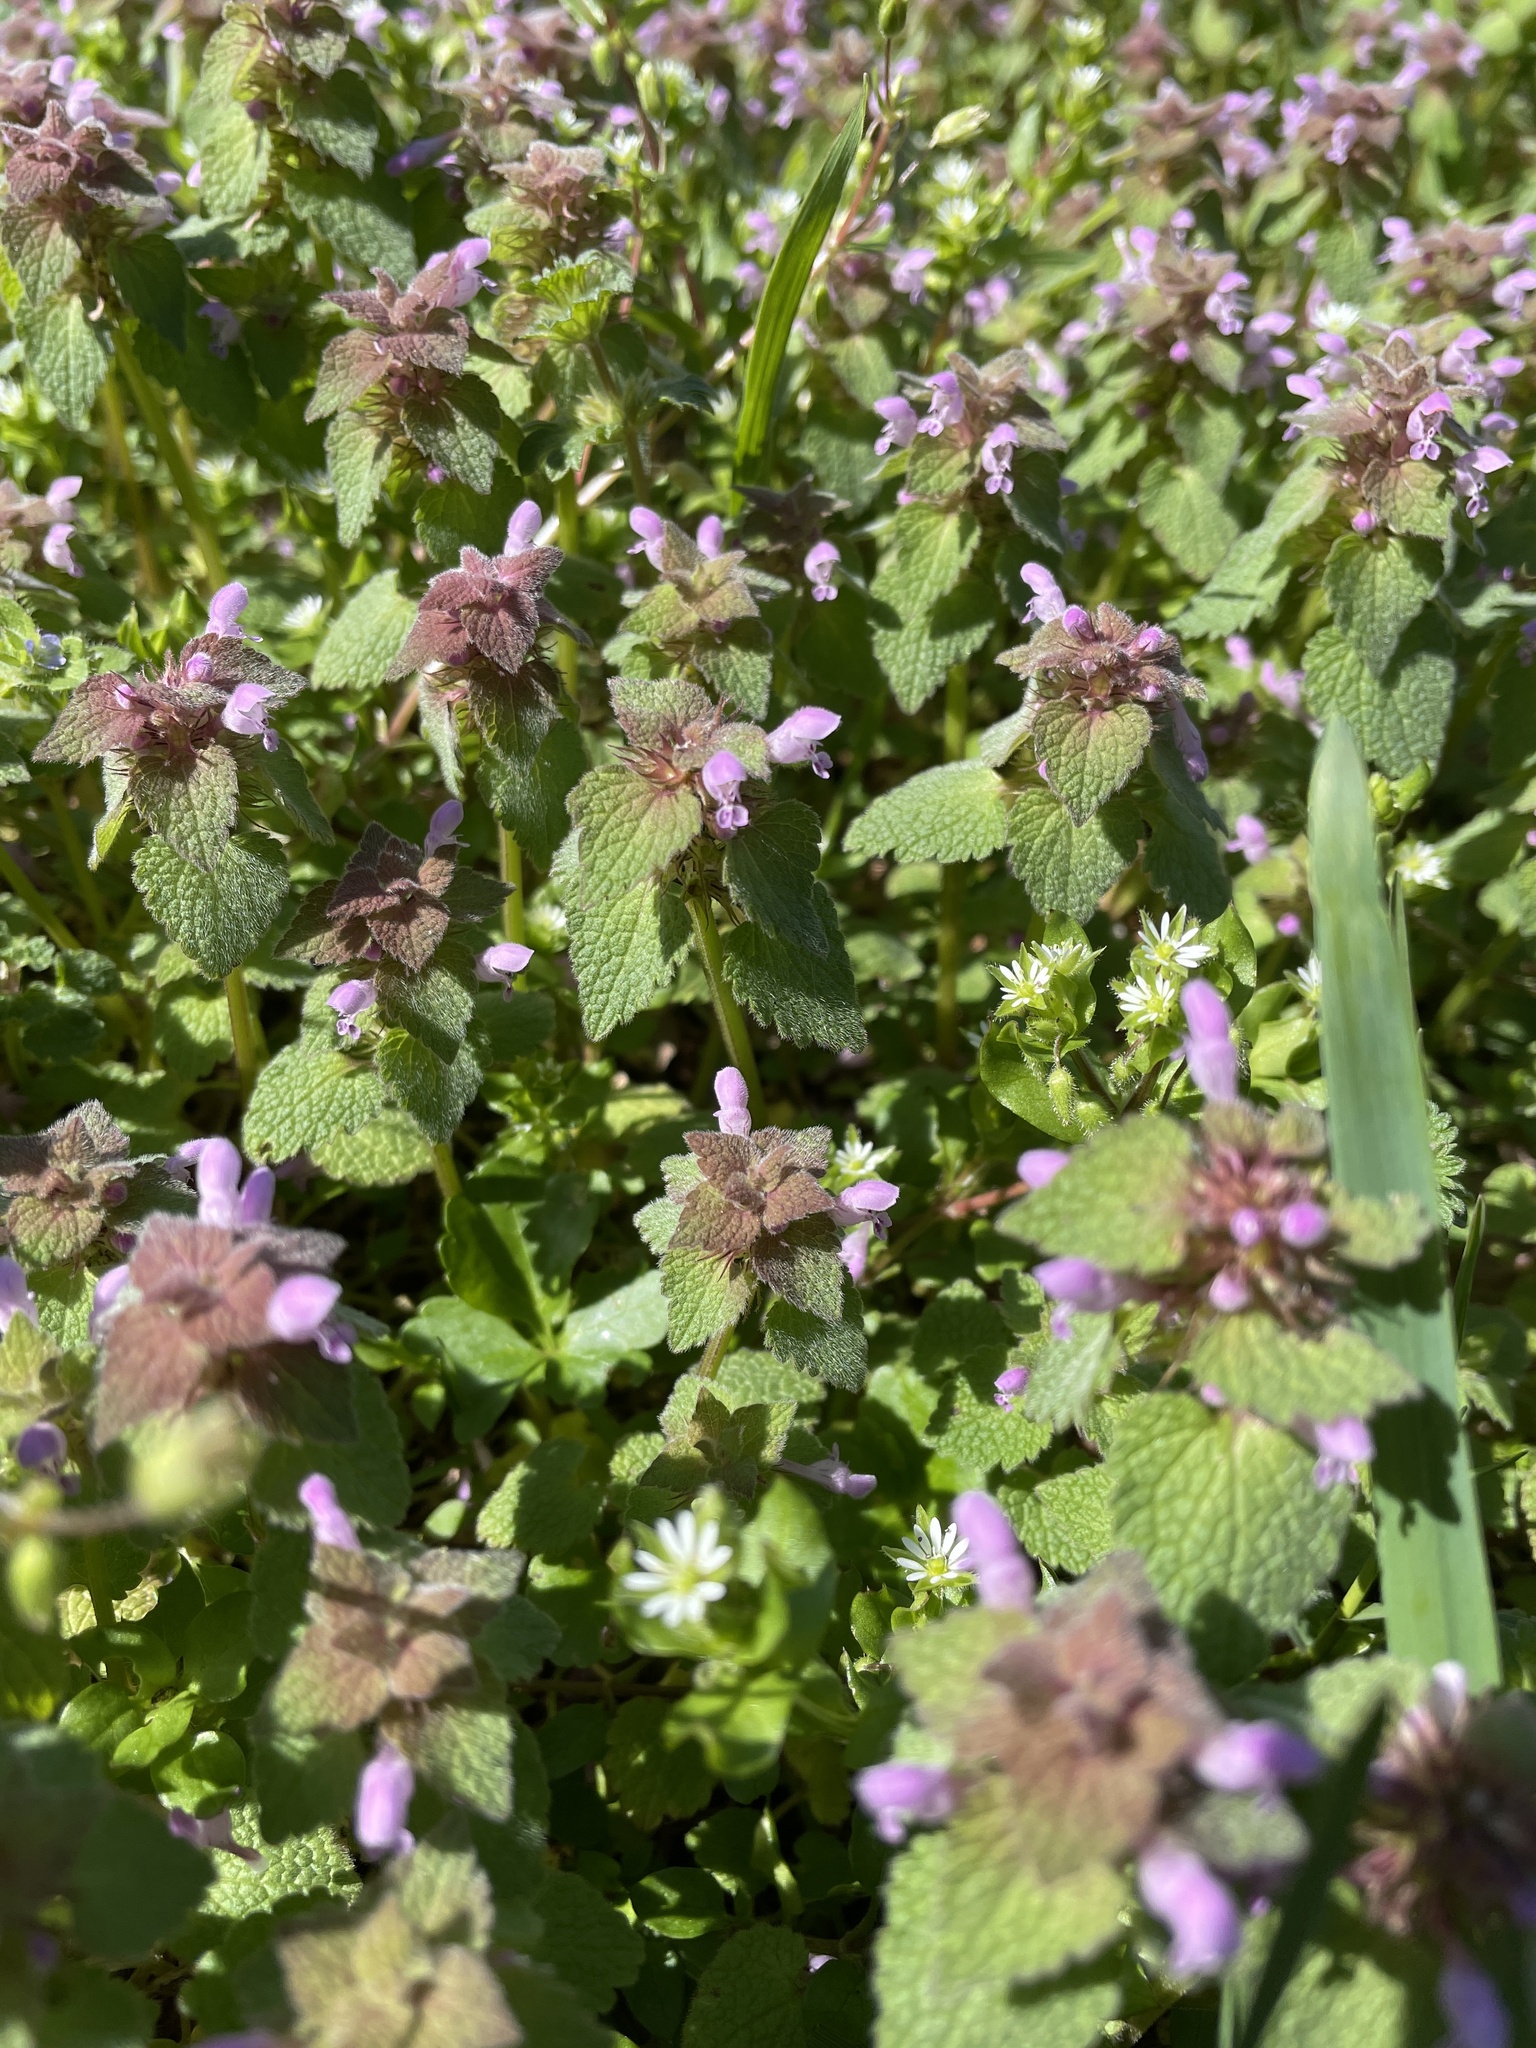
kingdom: Plantae
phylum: Tracheophyta
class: Magnoliopsida
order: Lamiales
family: Lamiaceae
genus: Lamium
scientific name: Lamium purpureum
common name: Red dead-nettle
